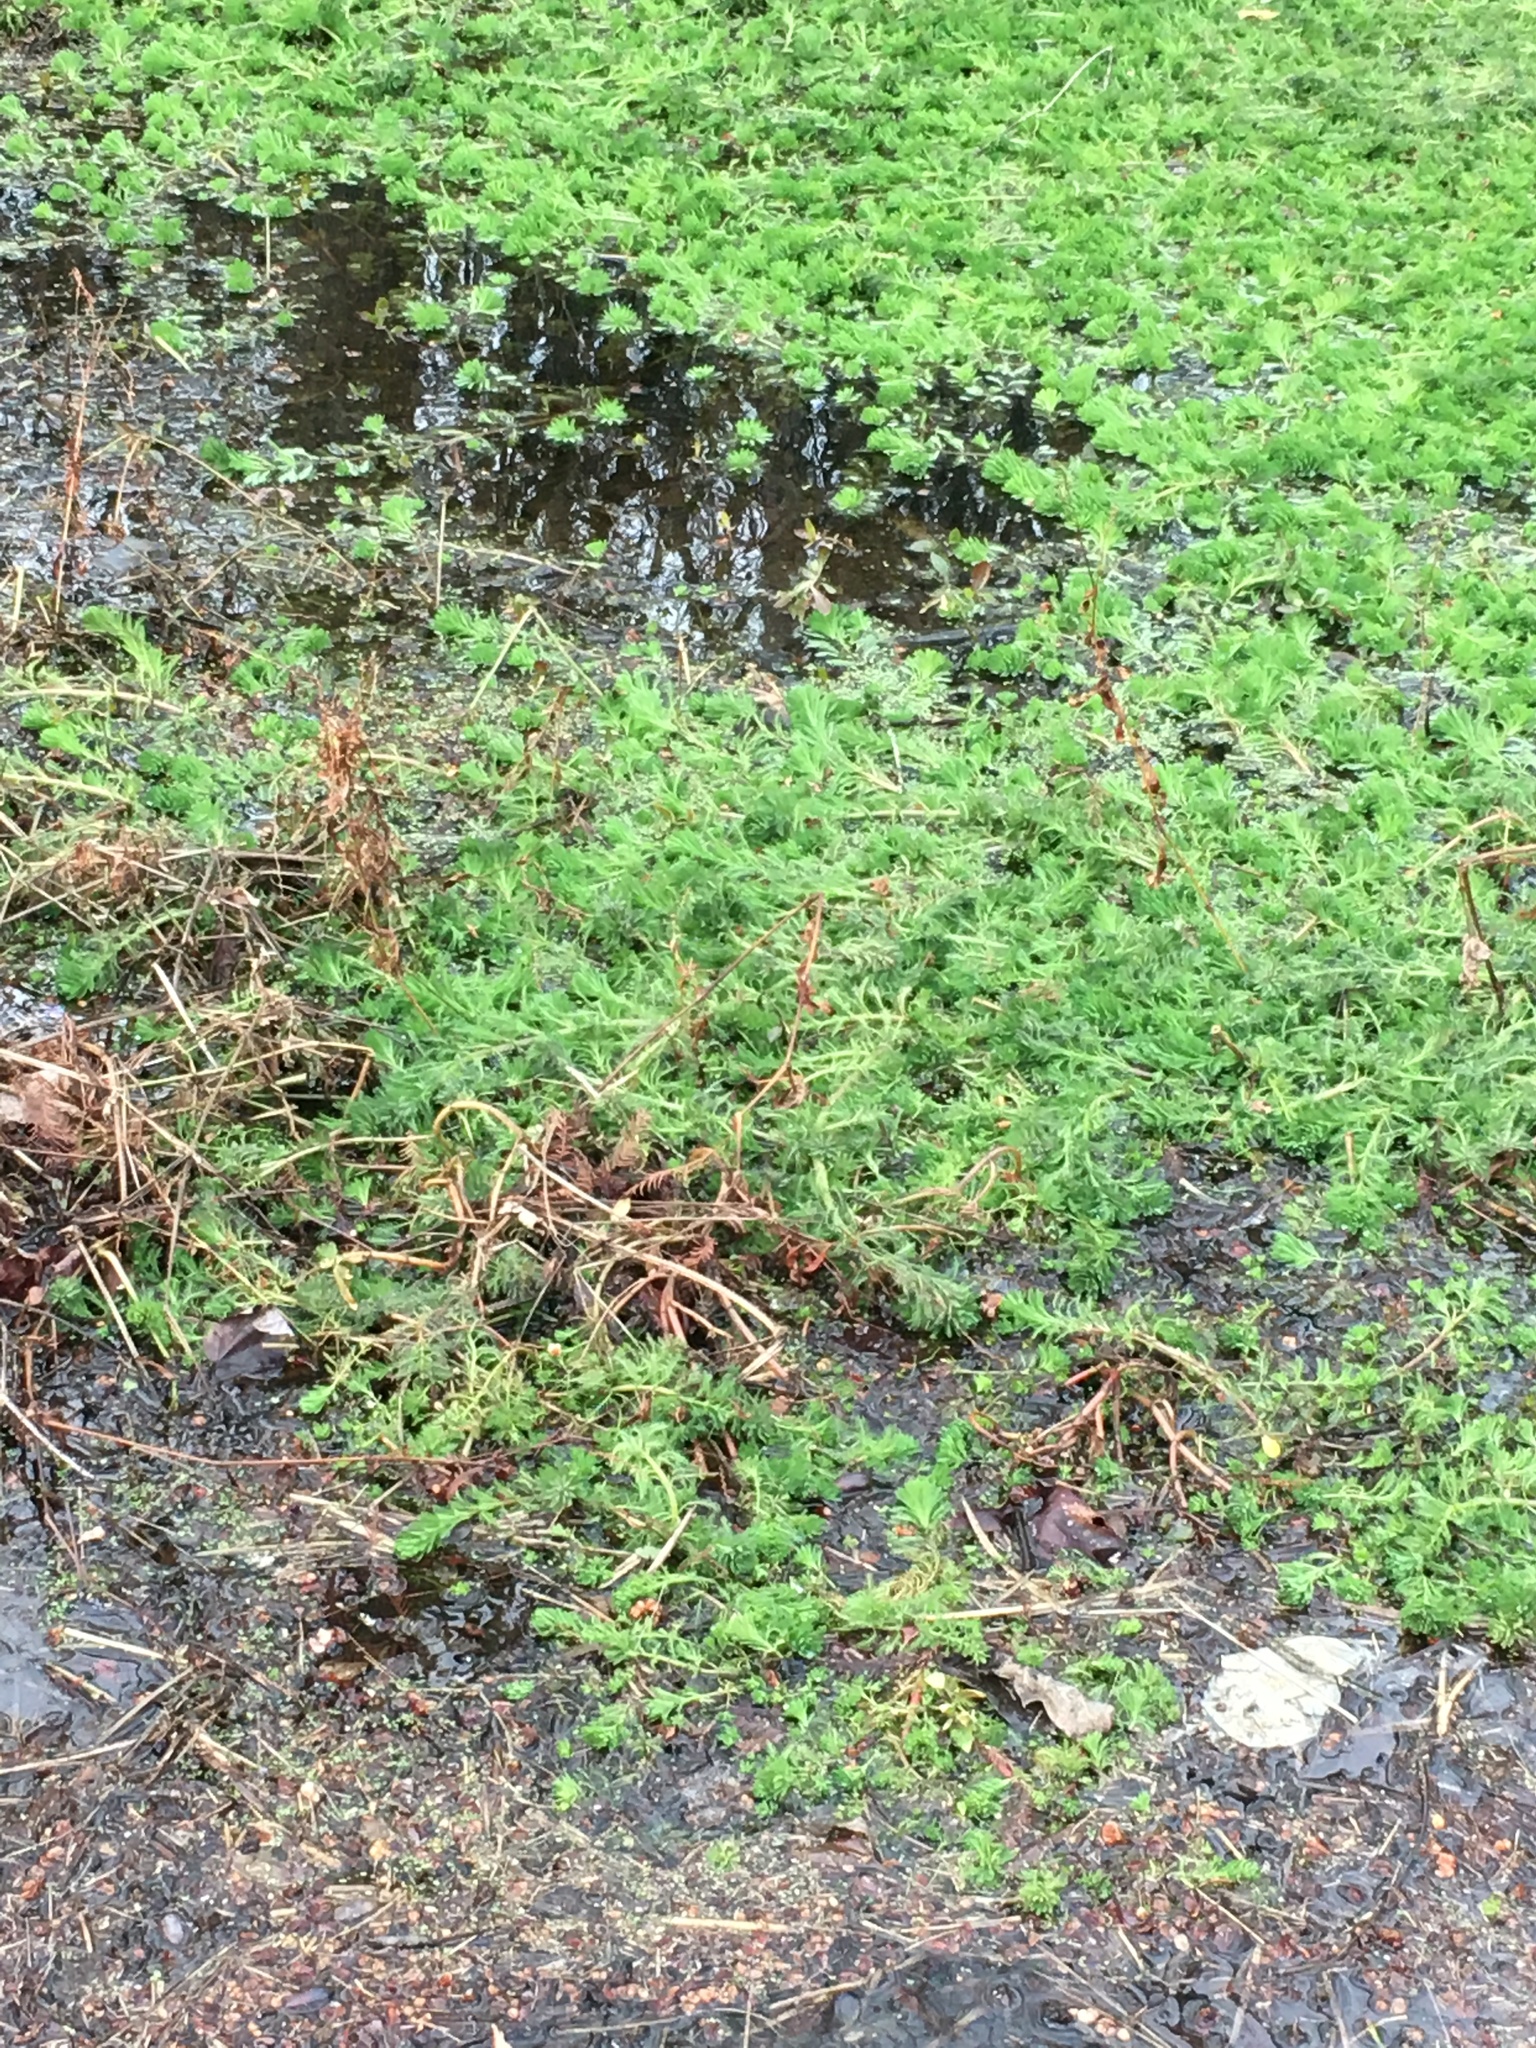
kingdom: Plantae
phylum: Tracheophyta
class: Magnoliopsida
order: Saxifragales
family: Haloragaceae
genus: Myriophyllum
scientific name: Myriophyllum aquaticum
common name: Parrot's feather
